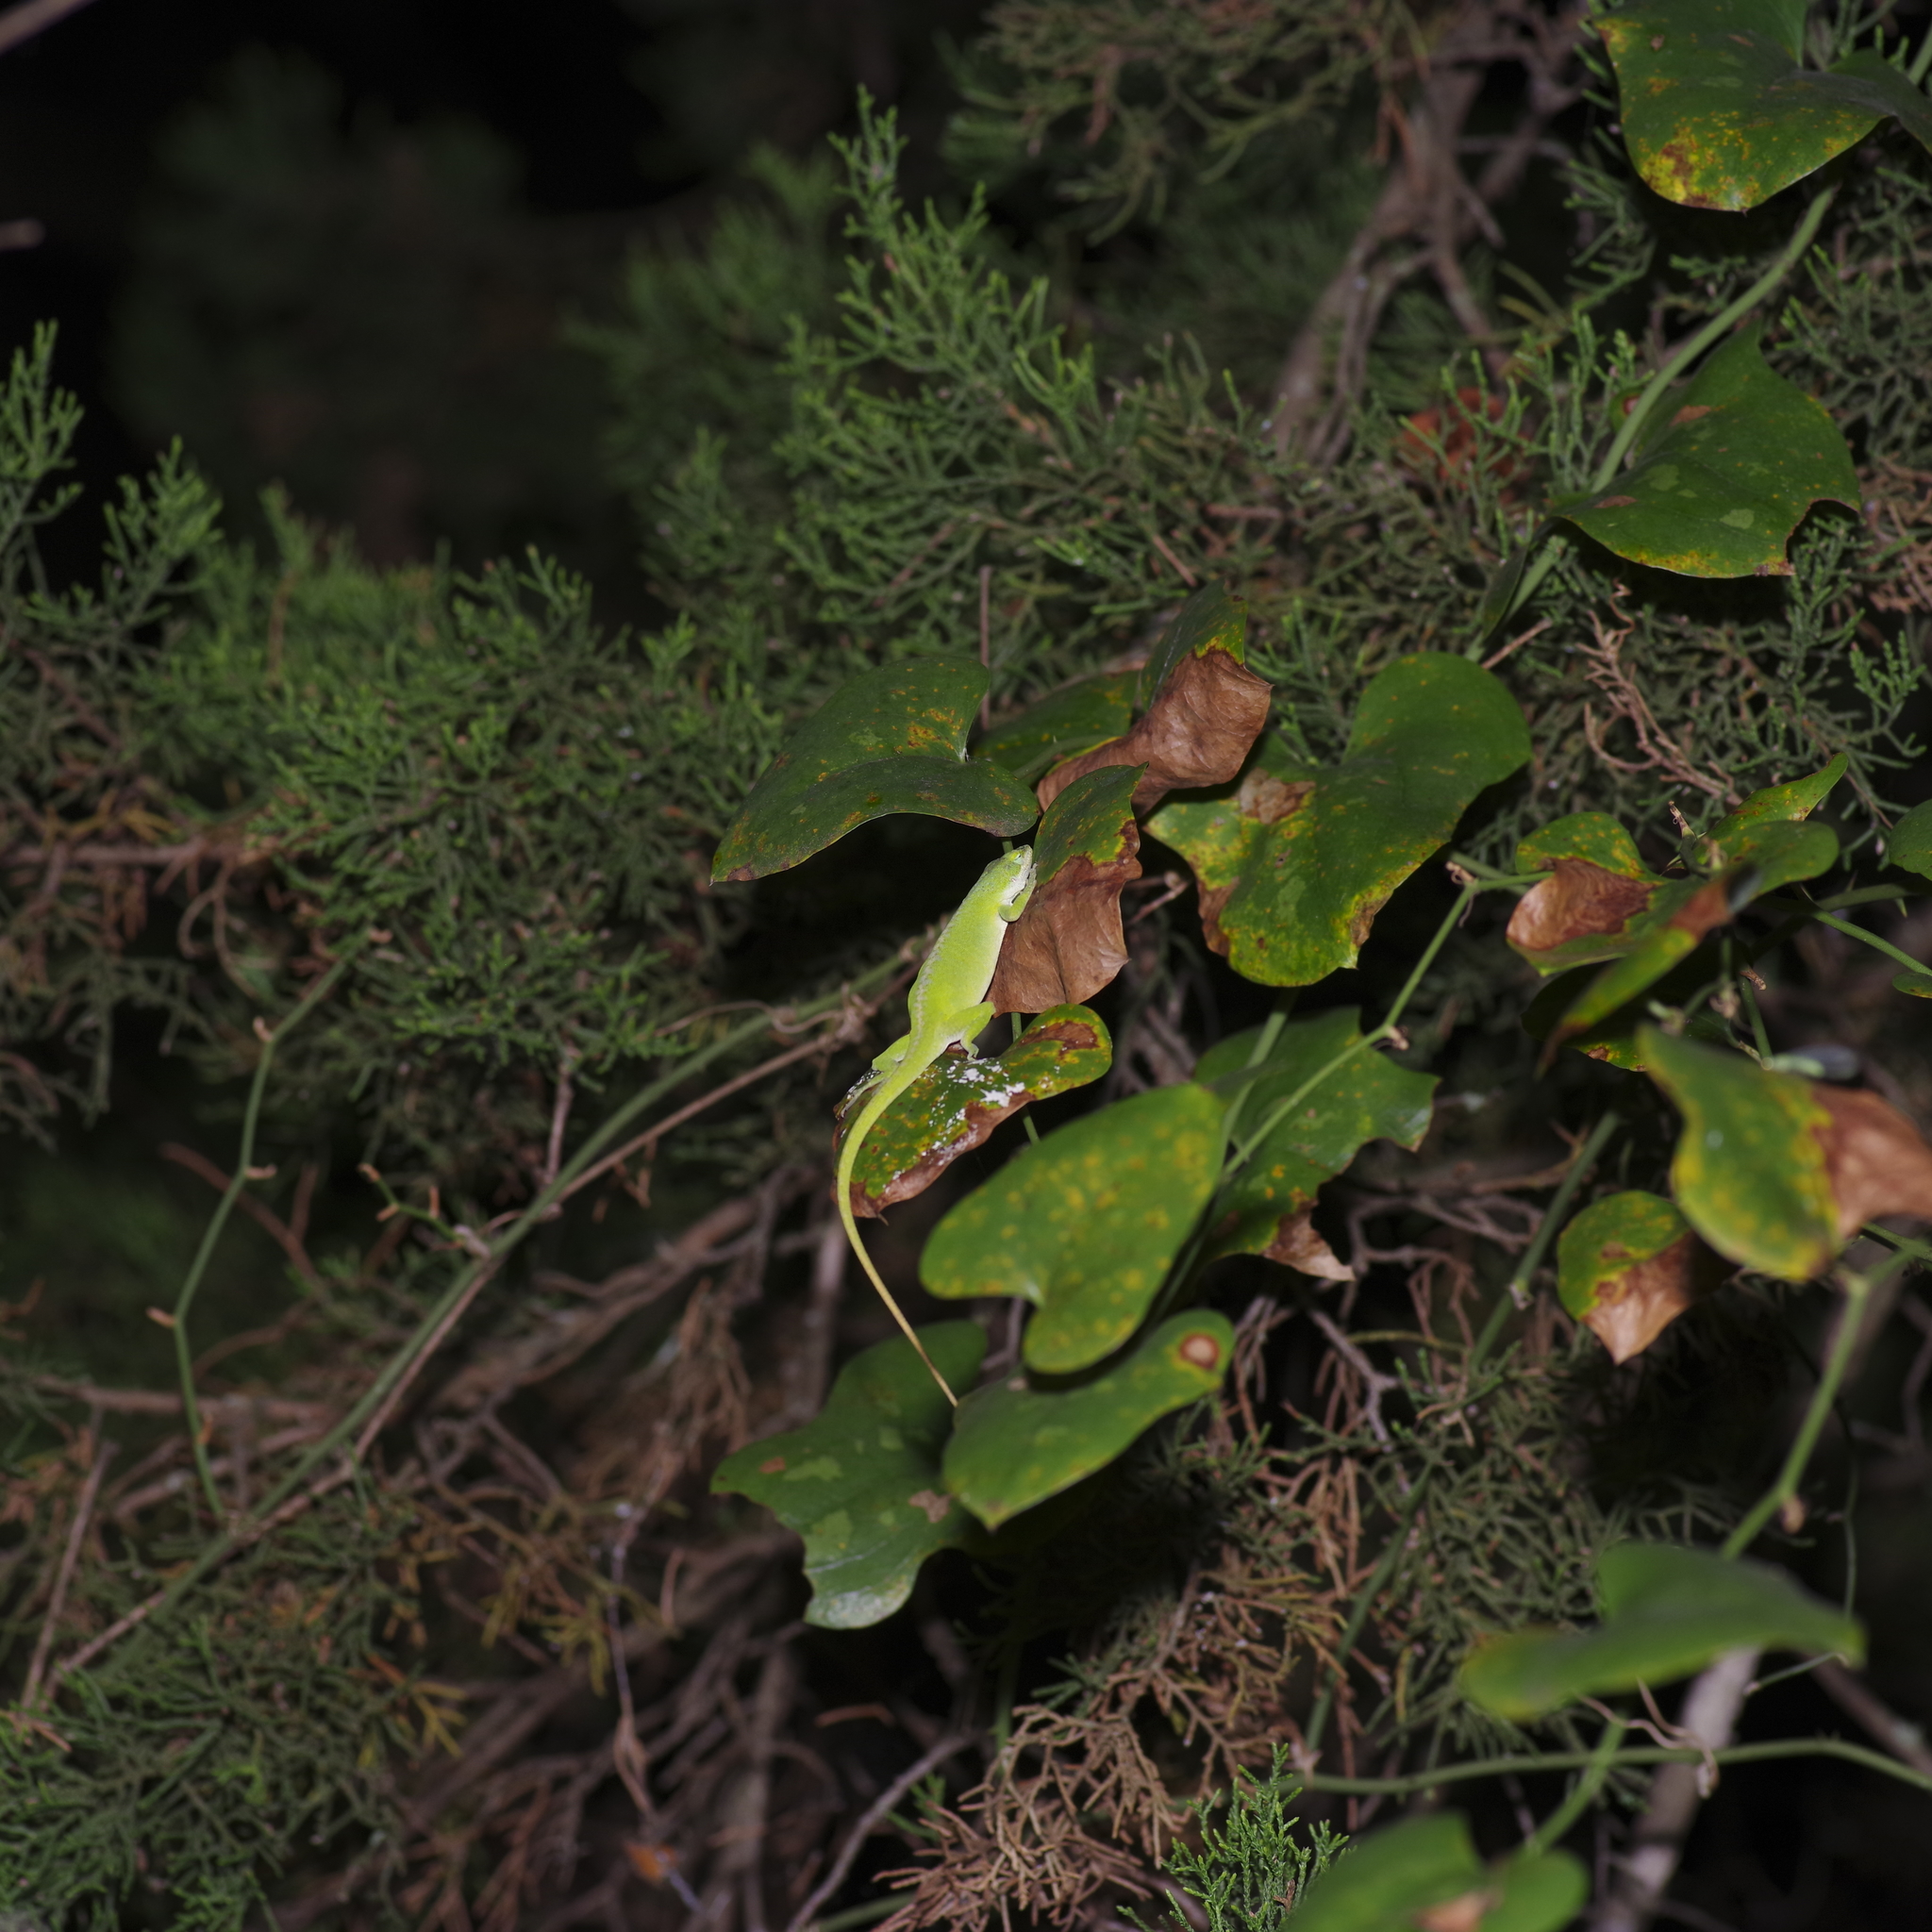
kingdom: Animalia
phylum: Chordata
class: Squamata
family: Dactyloidae
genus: Anolis
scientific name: Anolis carolinensis
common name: Green anole
